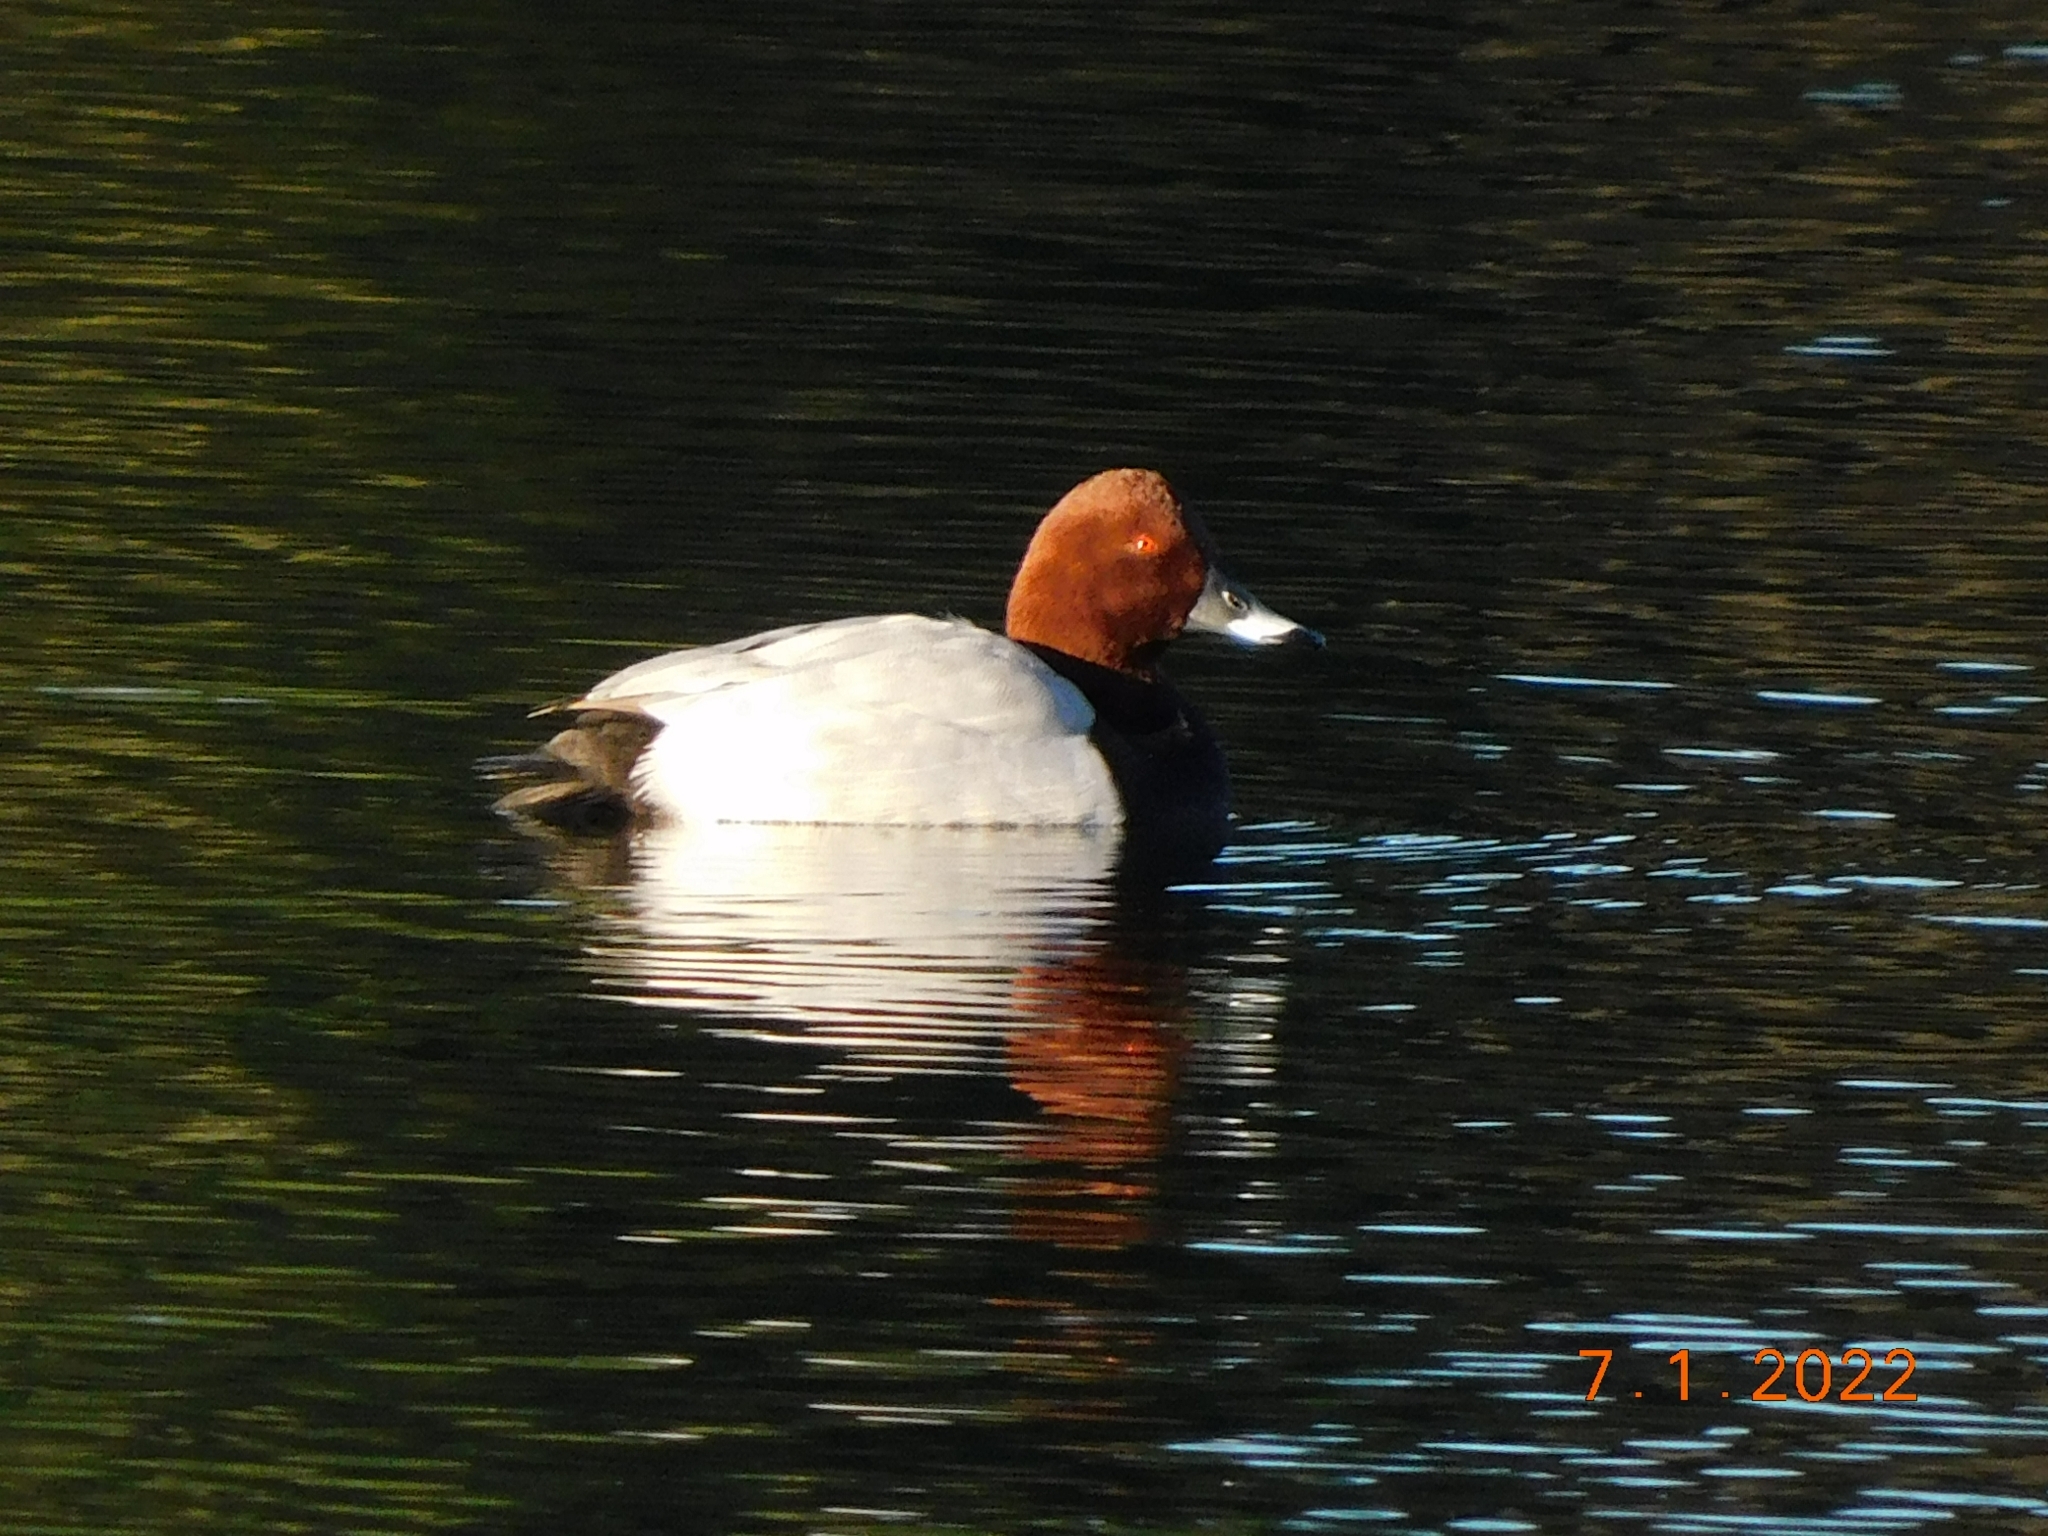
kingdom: Animalia
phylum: Chordata
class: Aves
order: Anseriformes
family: Anatidae
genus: Aythya
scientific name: Aythya ferina
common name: Common pochard
